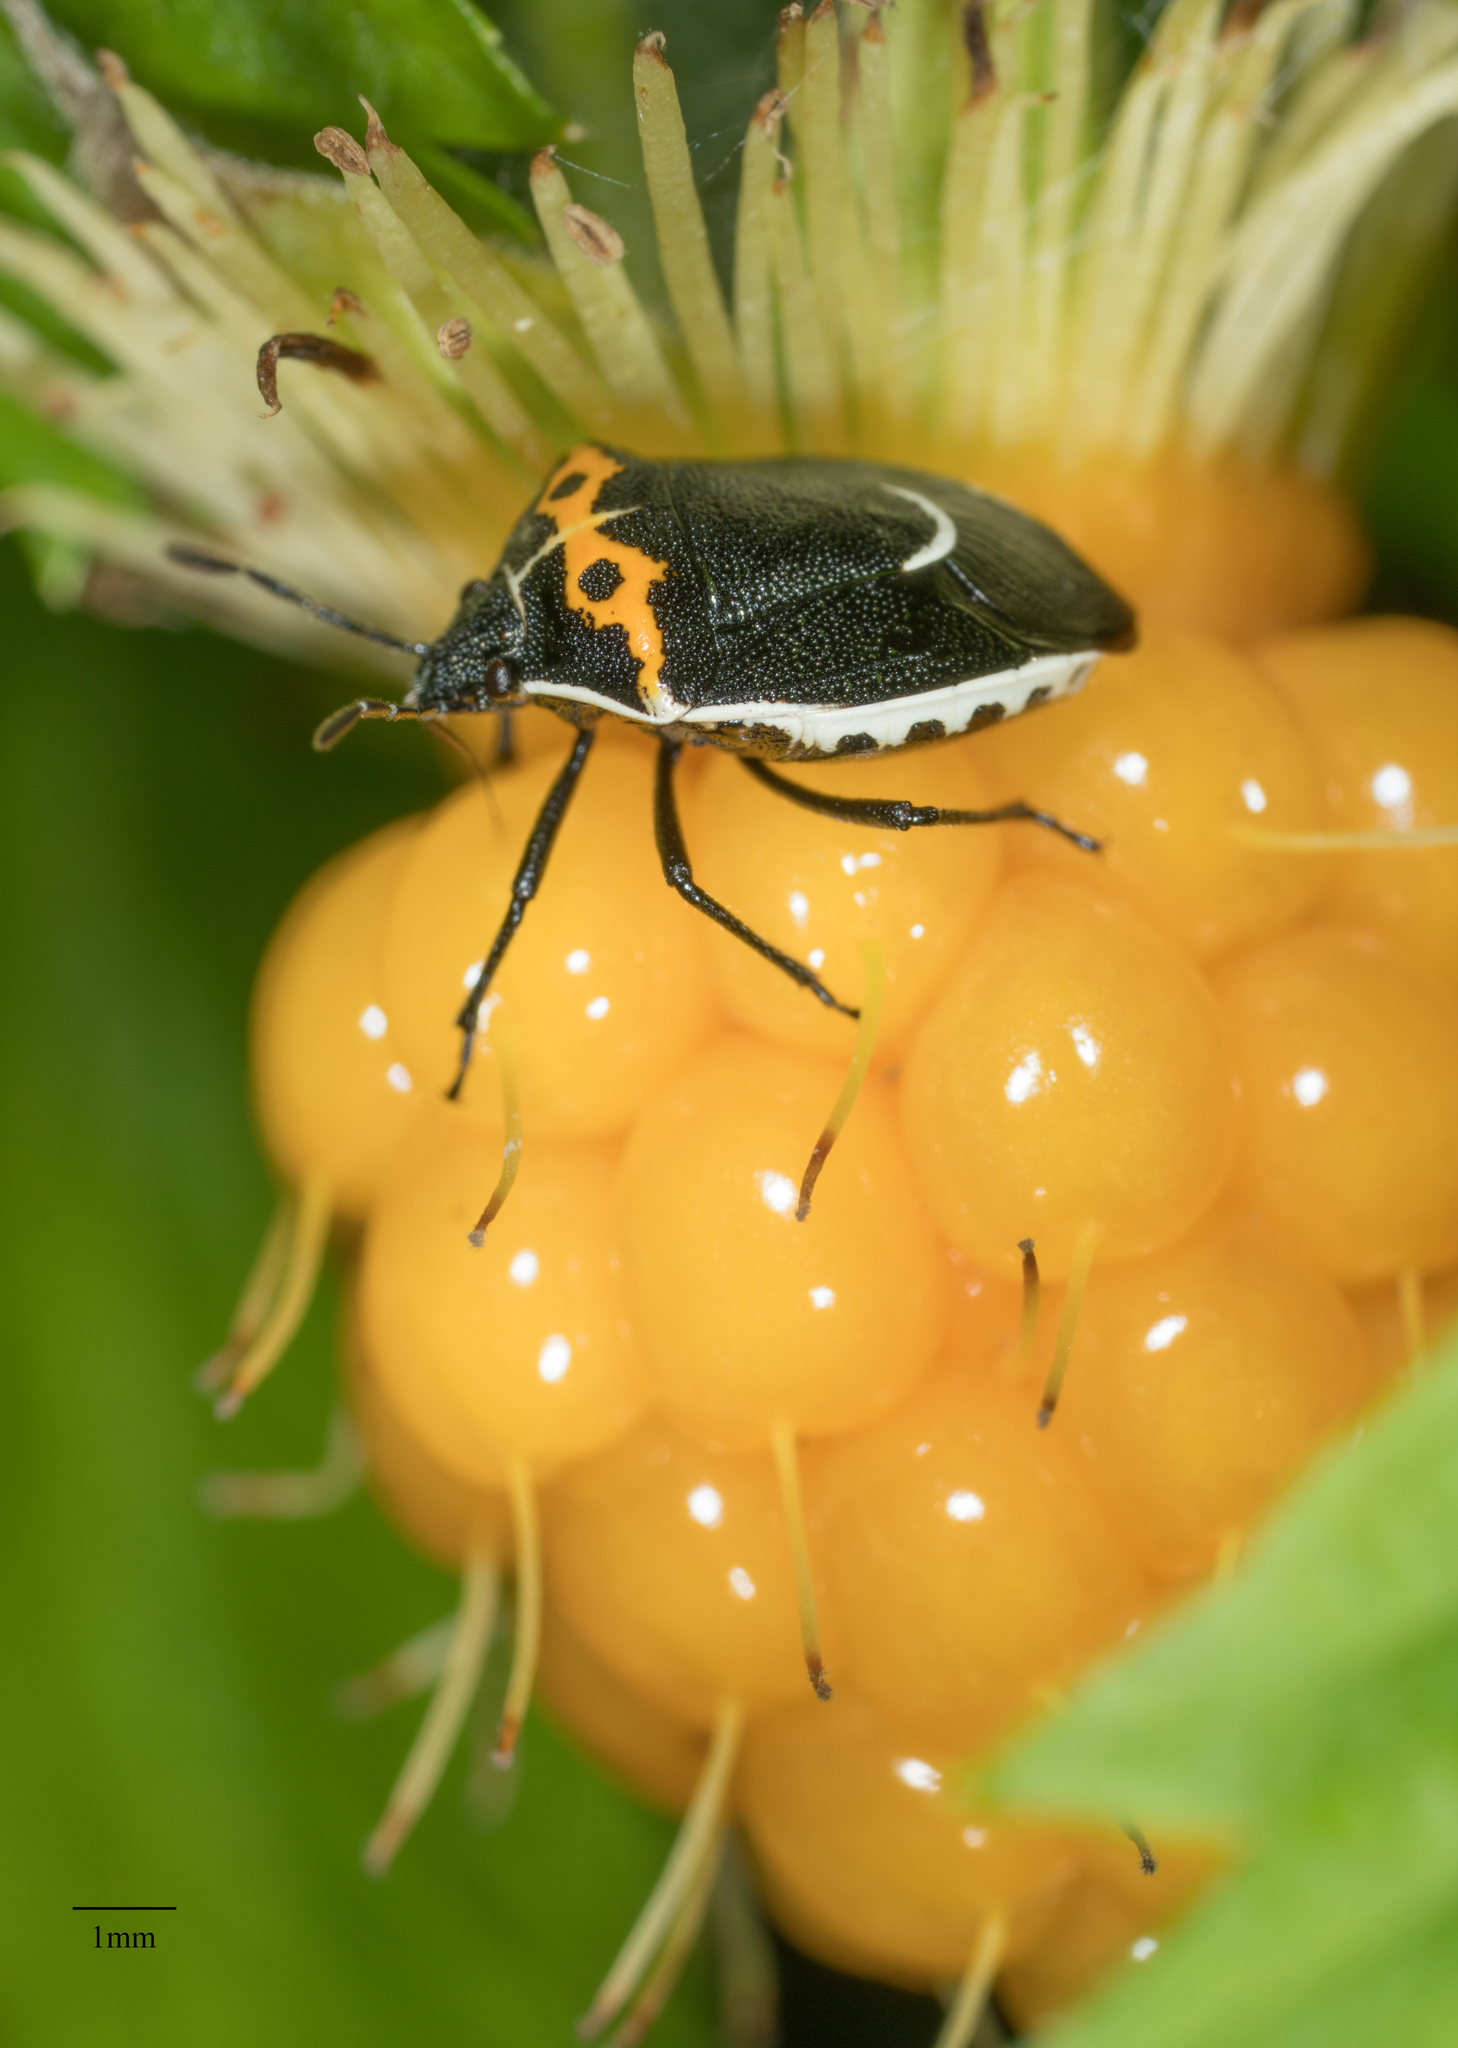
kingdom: Animalia
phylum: Arthropoda
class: Insecta
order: Hemiptera
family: Pentatomidae
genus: Cosmopepla
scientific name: Cosmopepla conspicillaris
